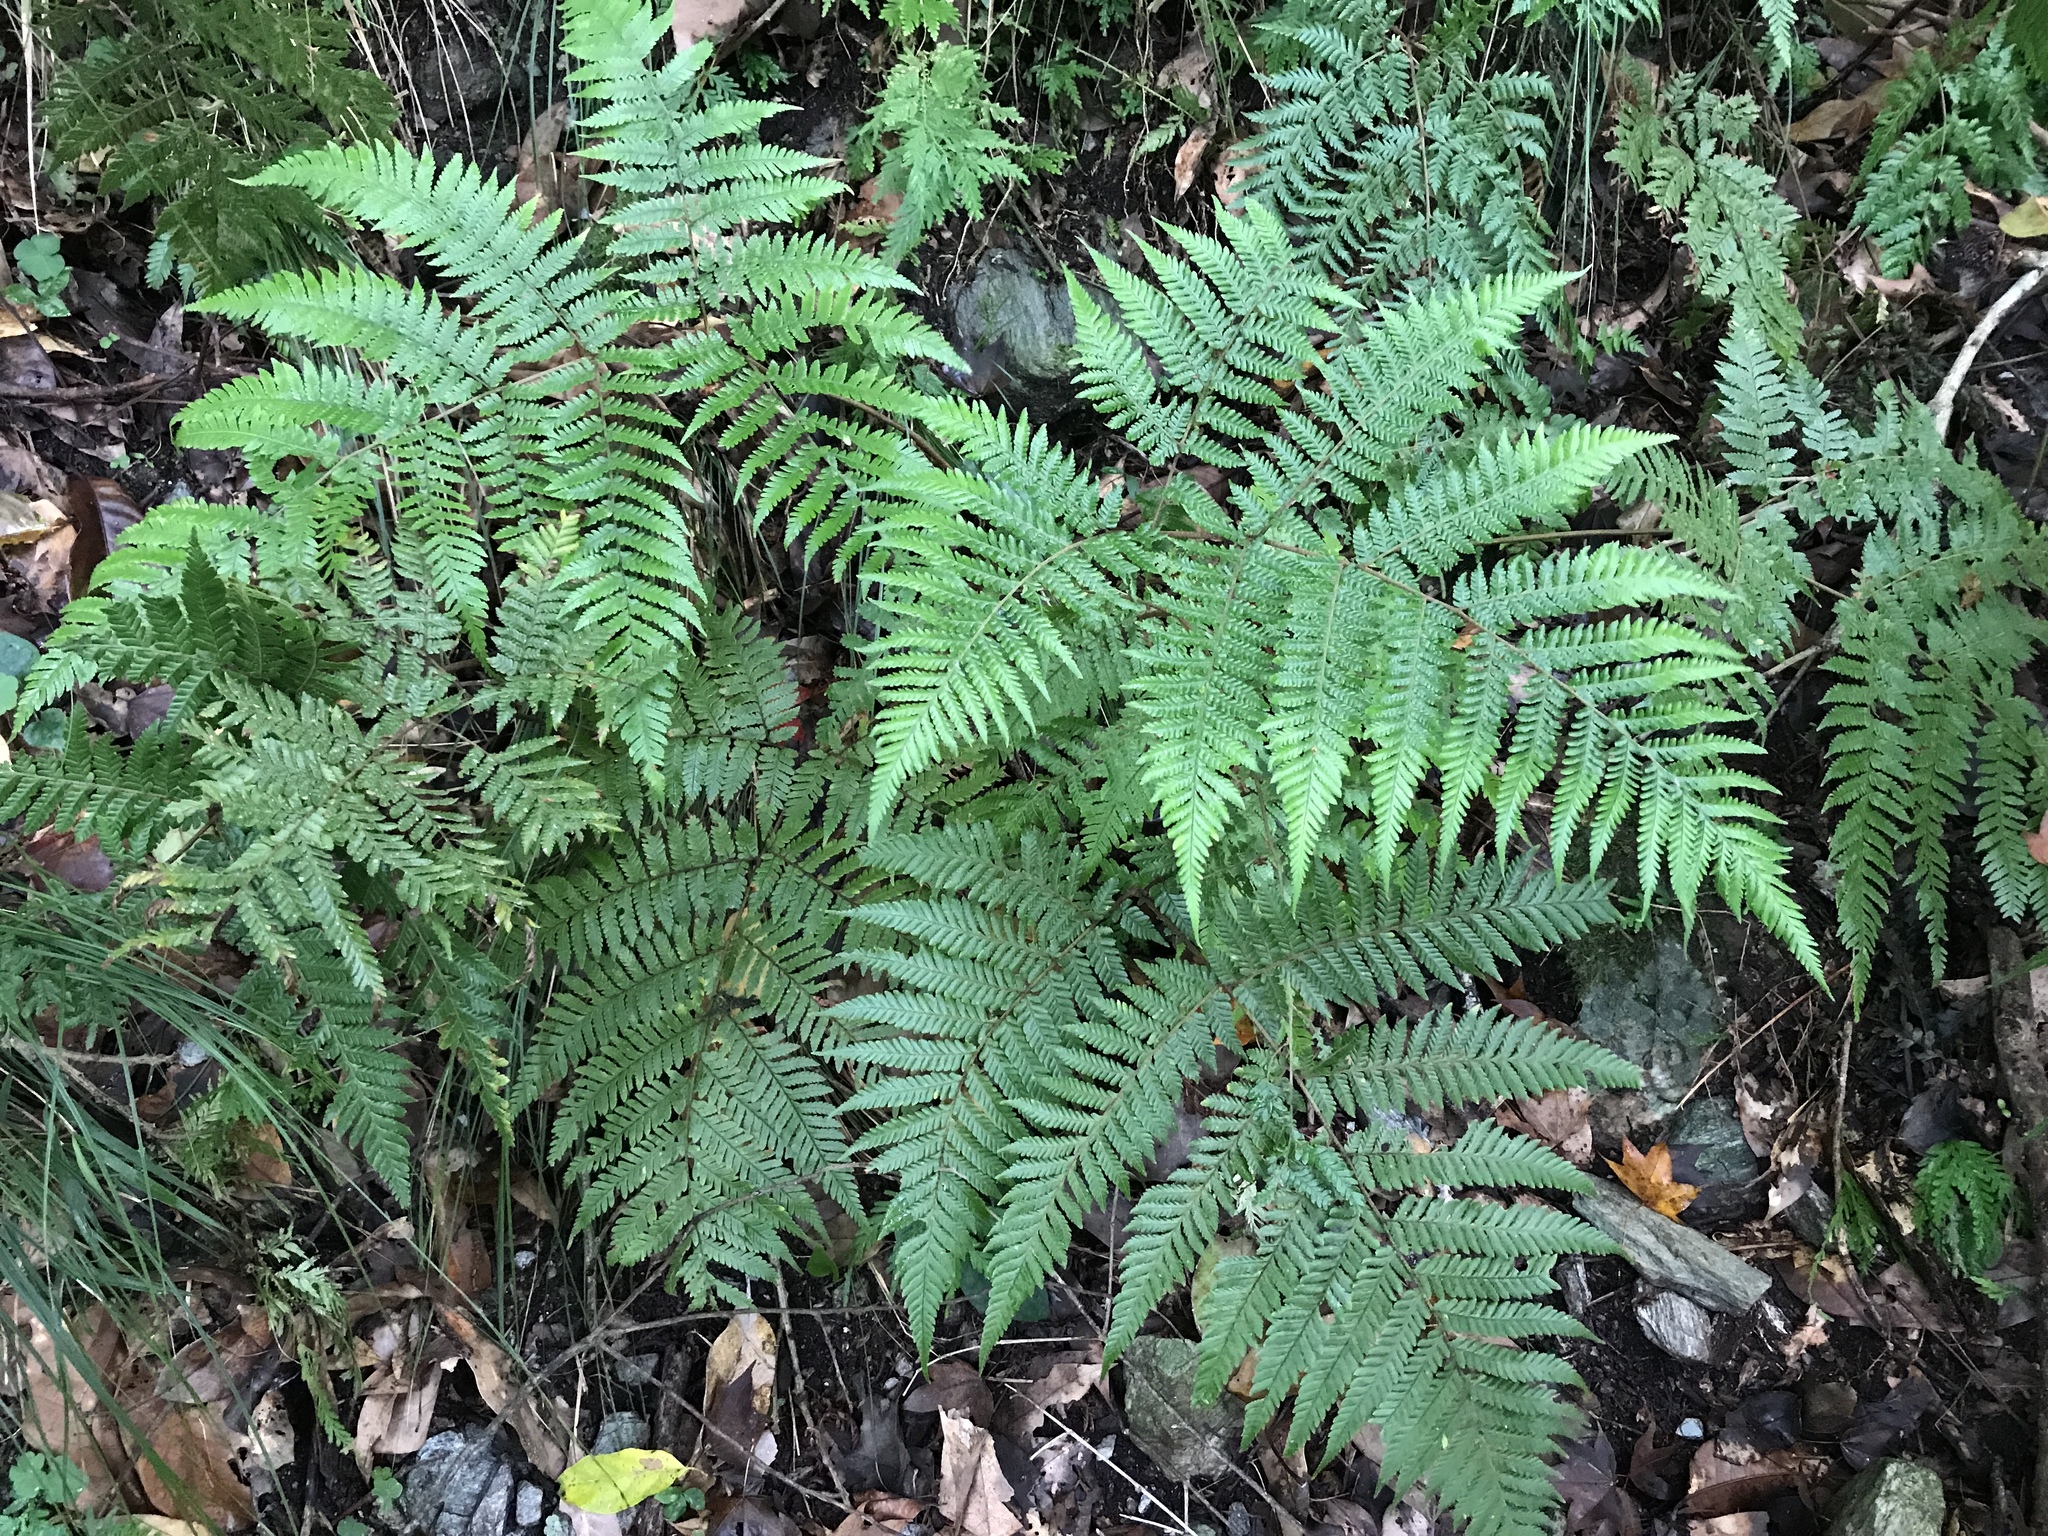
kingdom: Plantae
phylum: Tracheophyta
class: Polypodiopsida
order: Polypodiales
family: Dryopteridaceae
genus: Ctenitis
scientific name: Ctenitis subglandulosa
